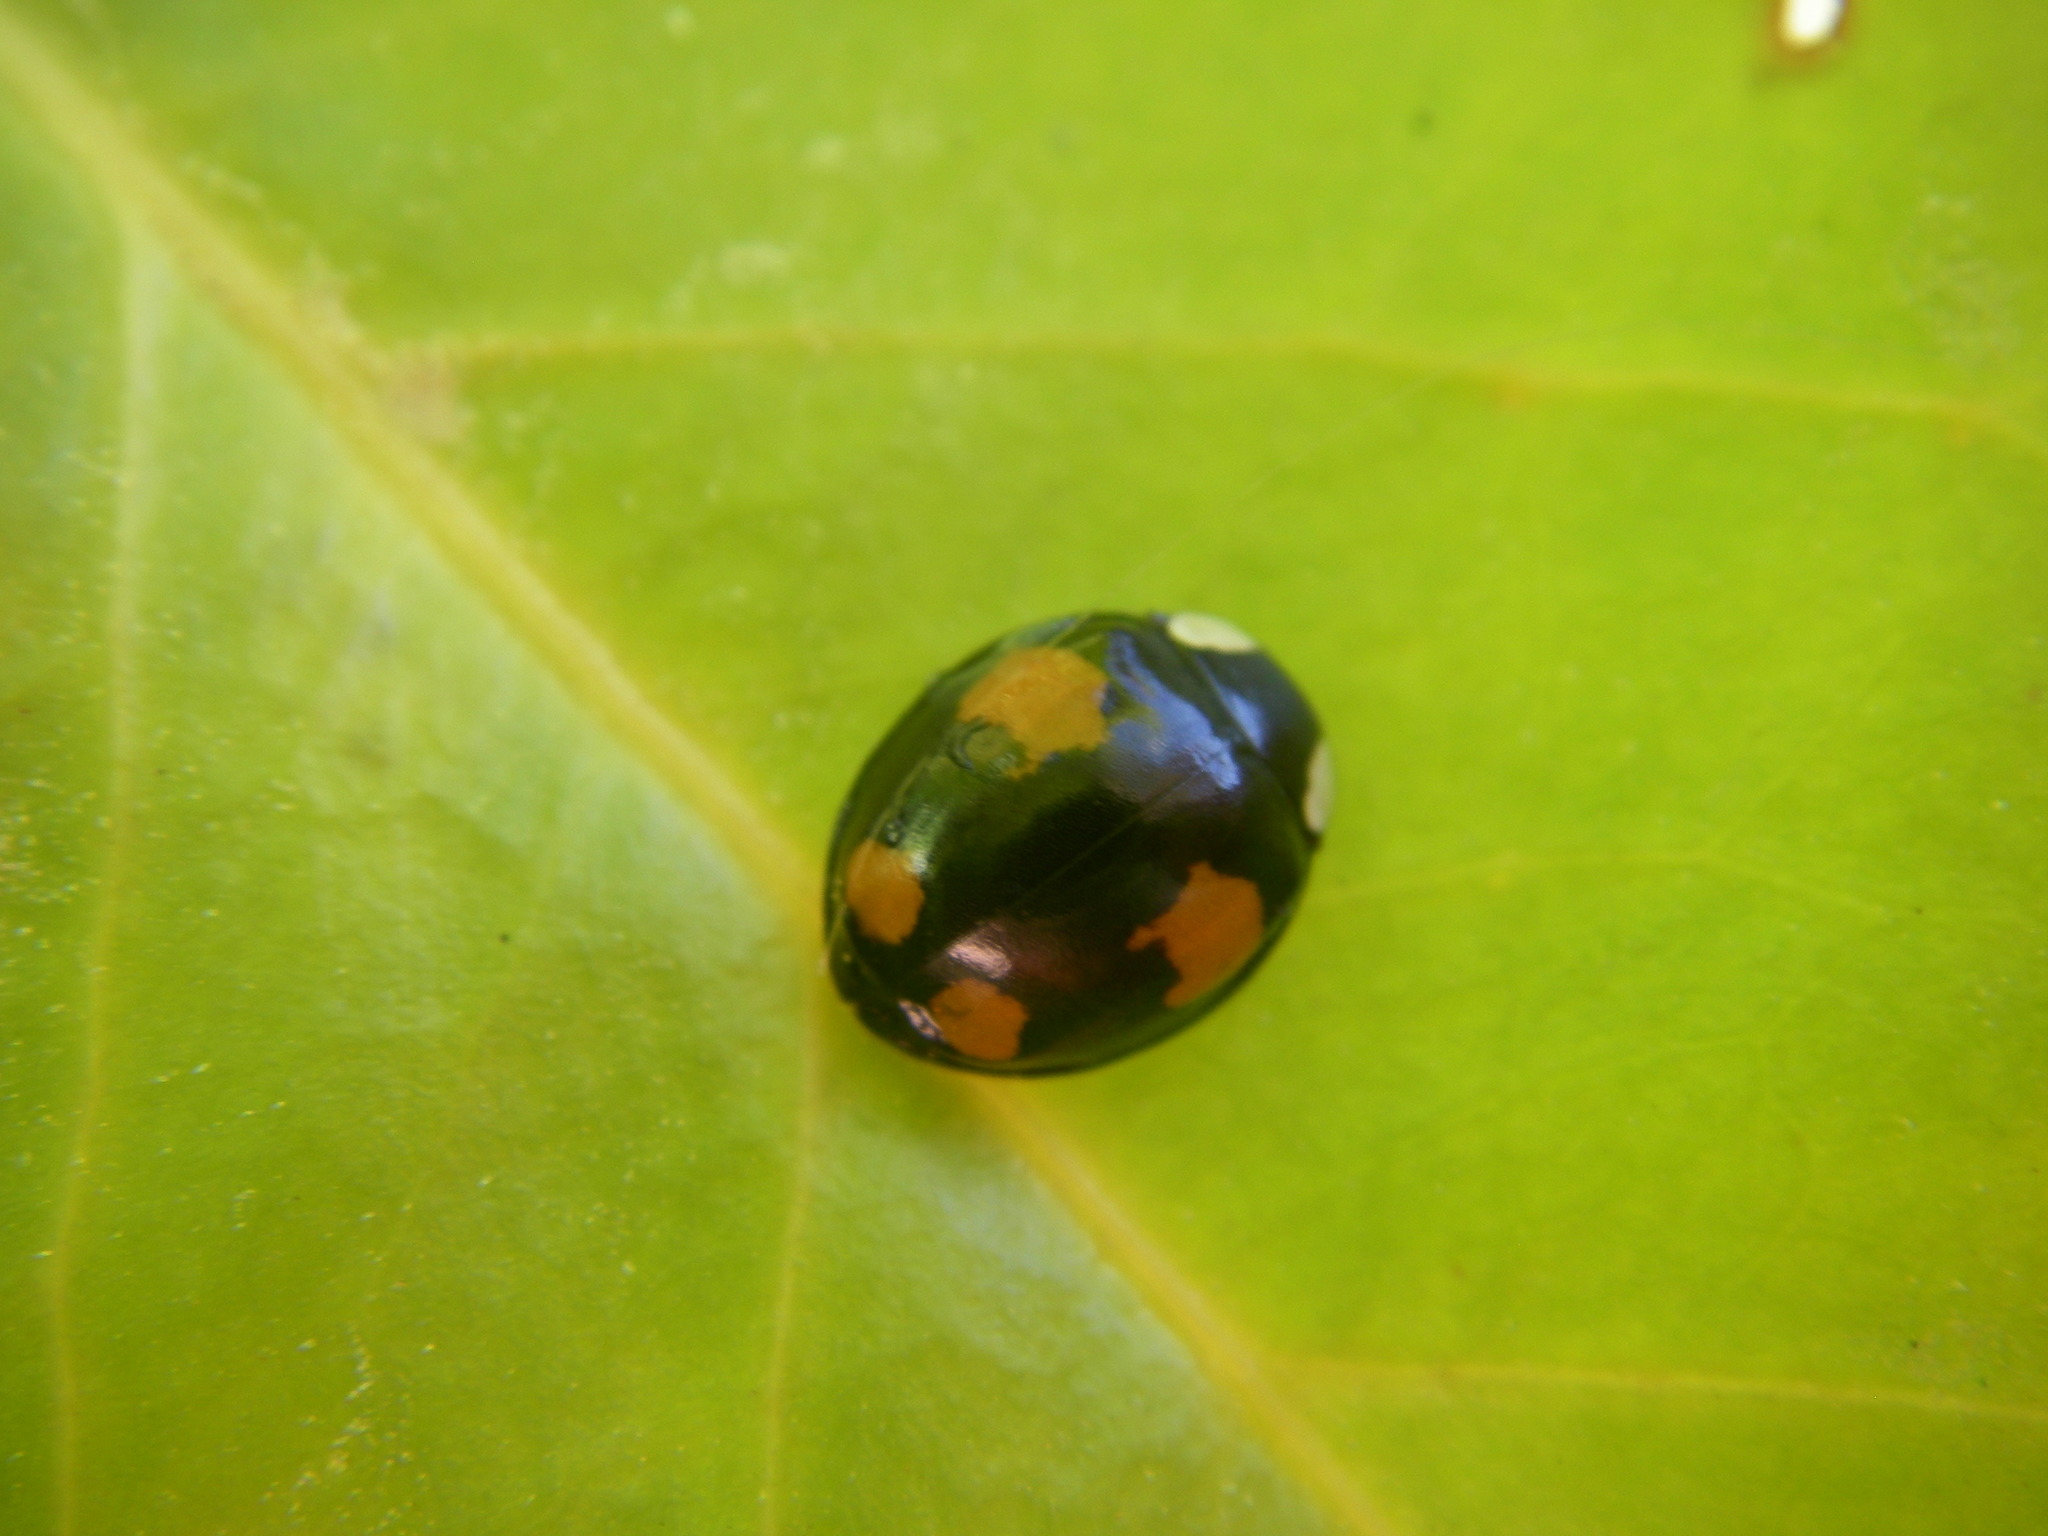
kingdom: Animalia
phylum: Arthropoda
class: Insecta
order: Coleoptera
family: Coccinellidae
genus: Harmonia
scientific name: Harmonia axyridis
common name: Harlequin ladybird
